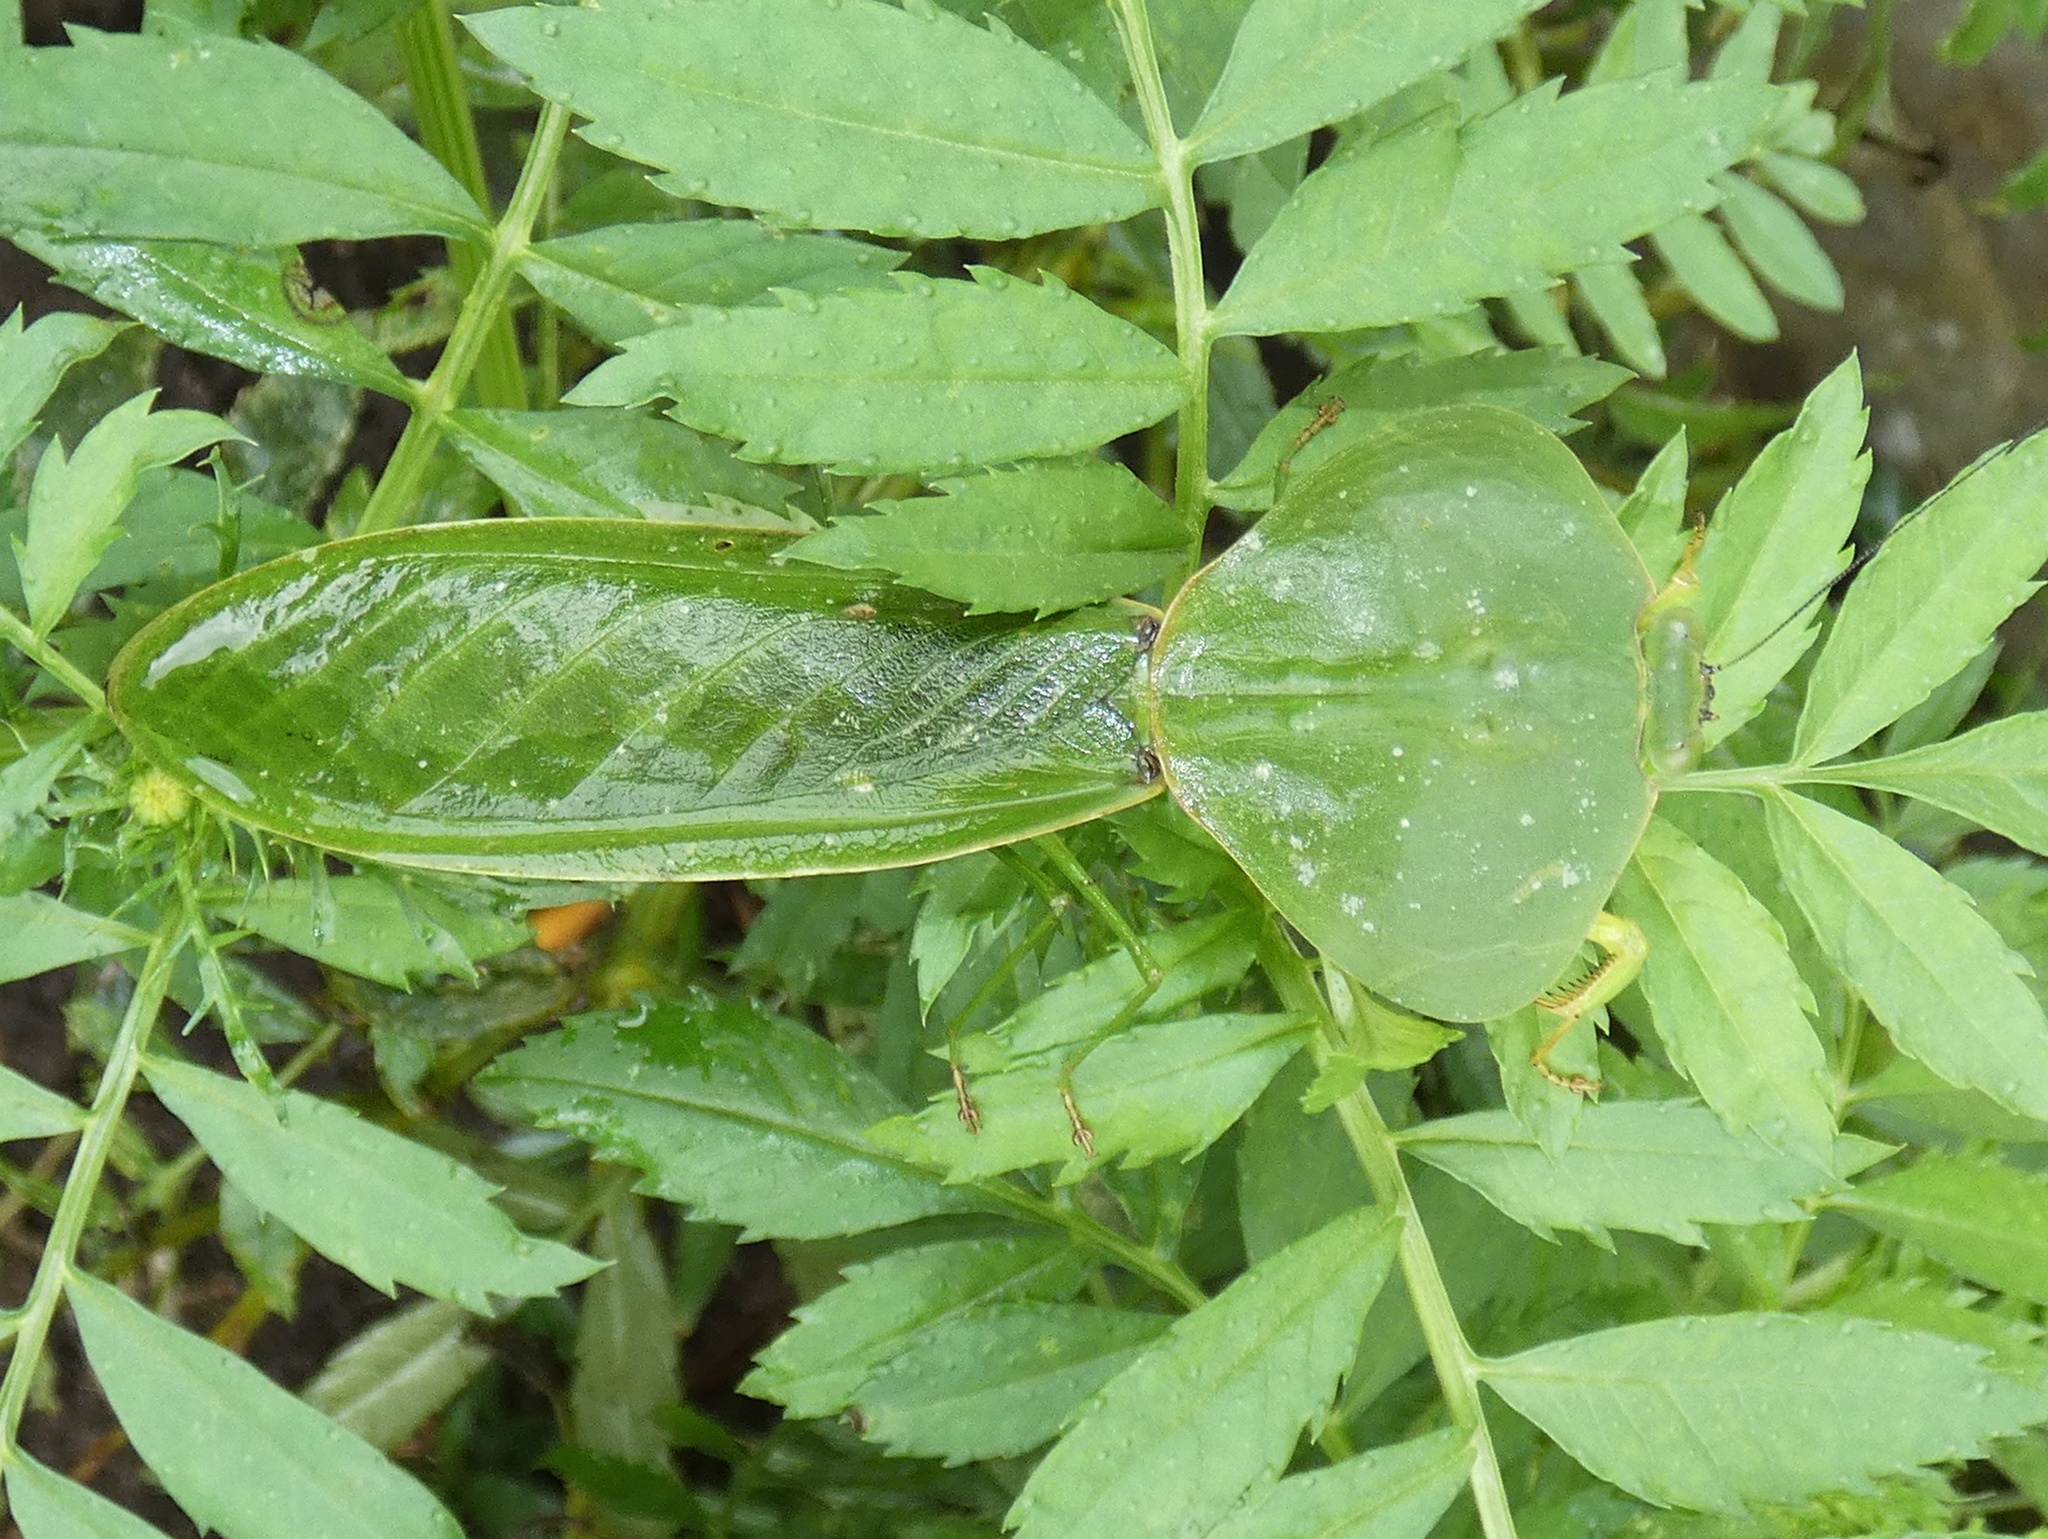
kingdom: Animalia
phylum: Arthropoda
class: Insecta
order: Mantodea
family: Mantidae
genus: Choeradodis
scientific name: Choeradodis rhombicollis
